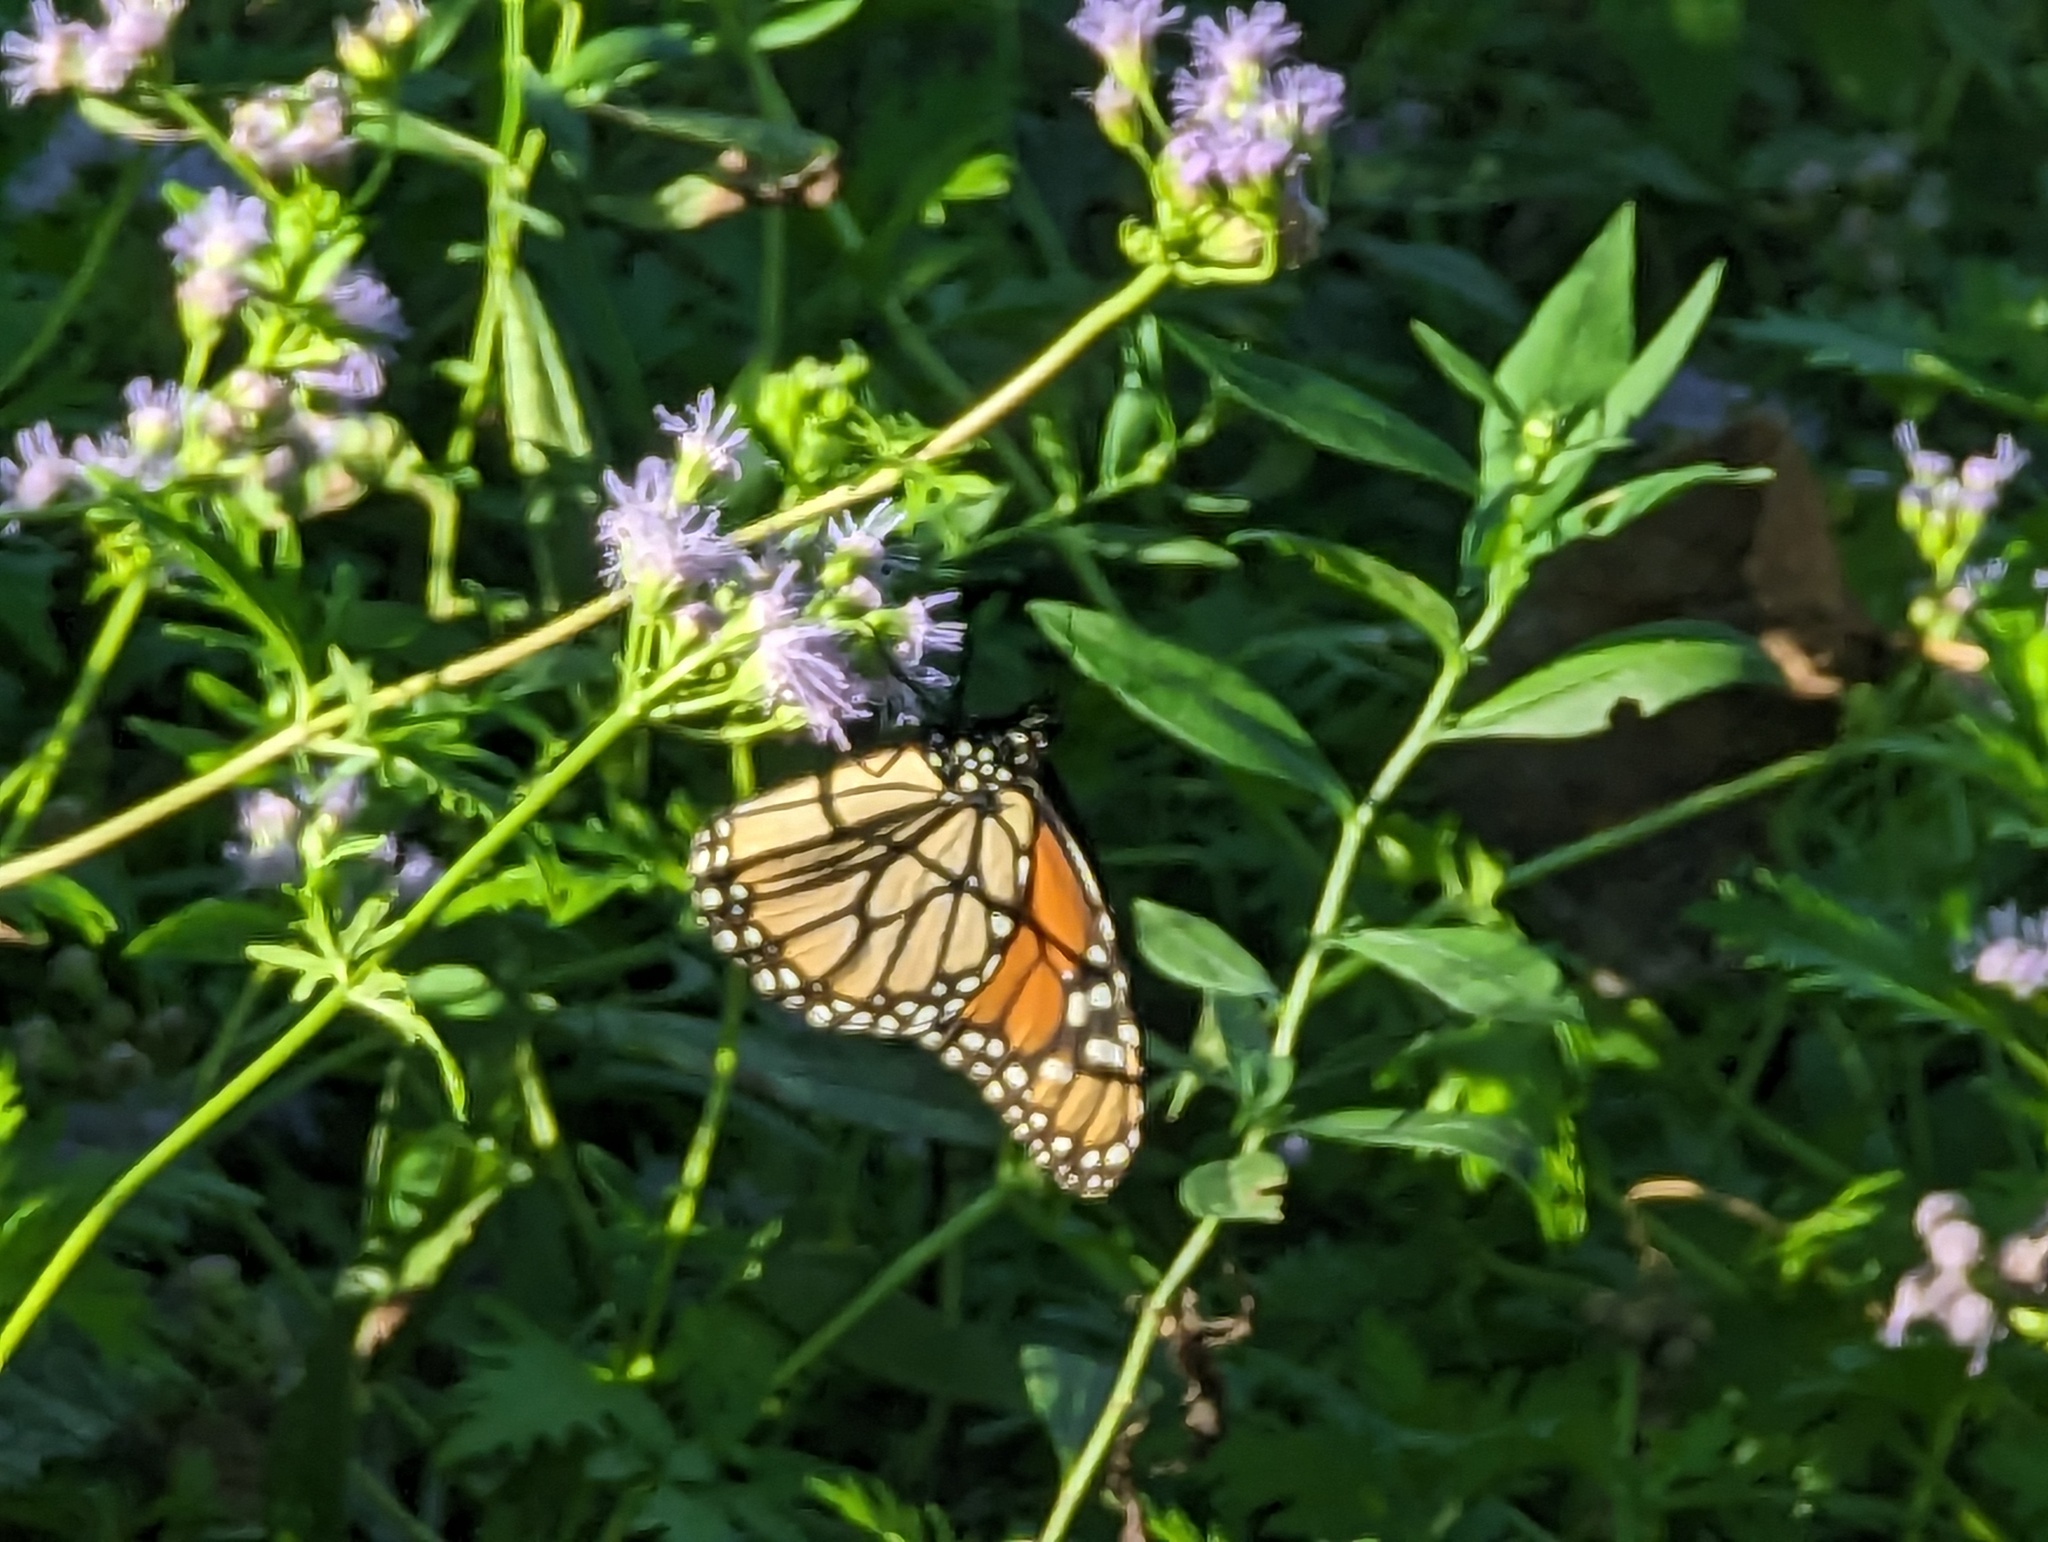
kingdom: Animalia
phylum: Arthropoda
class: Insecta
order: Lepidoptera
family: Nymphalidae
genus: Danaus
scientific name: Danaus plexippus
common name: Monarch
